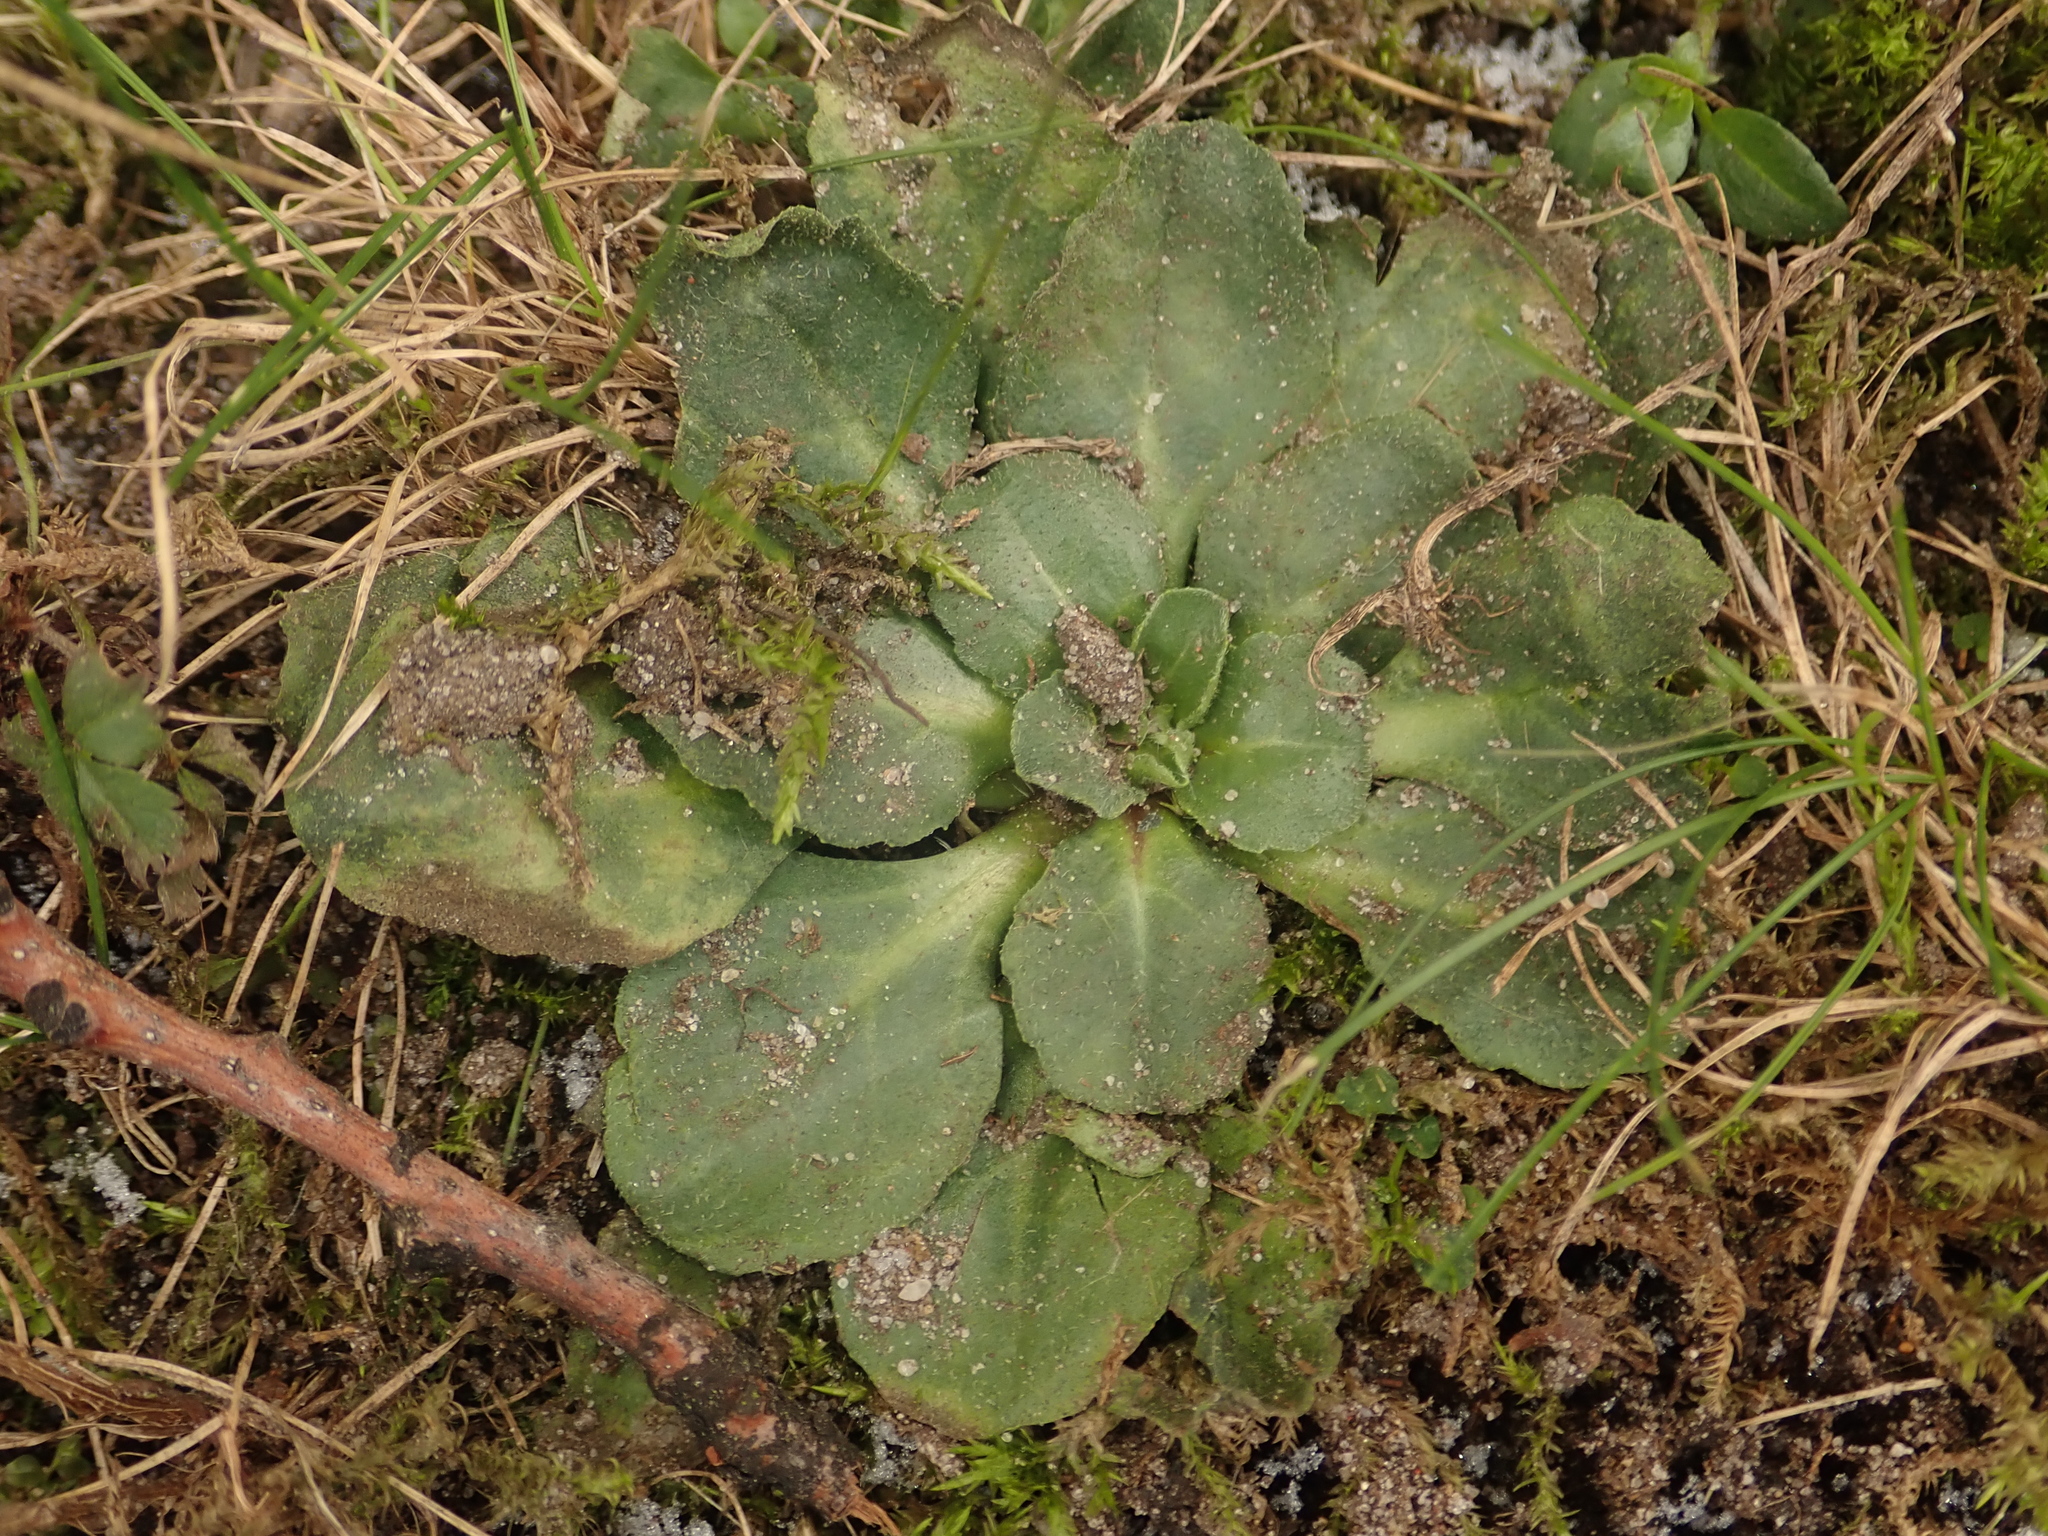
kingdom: Plantae
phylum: Tracheophyta
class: Magnoliopsida
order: Asterales
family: Asteraceae
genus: Bellis
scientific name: Bellis perennis
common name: Lawndaisy
